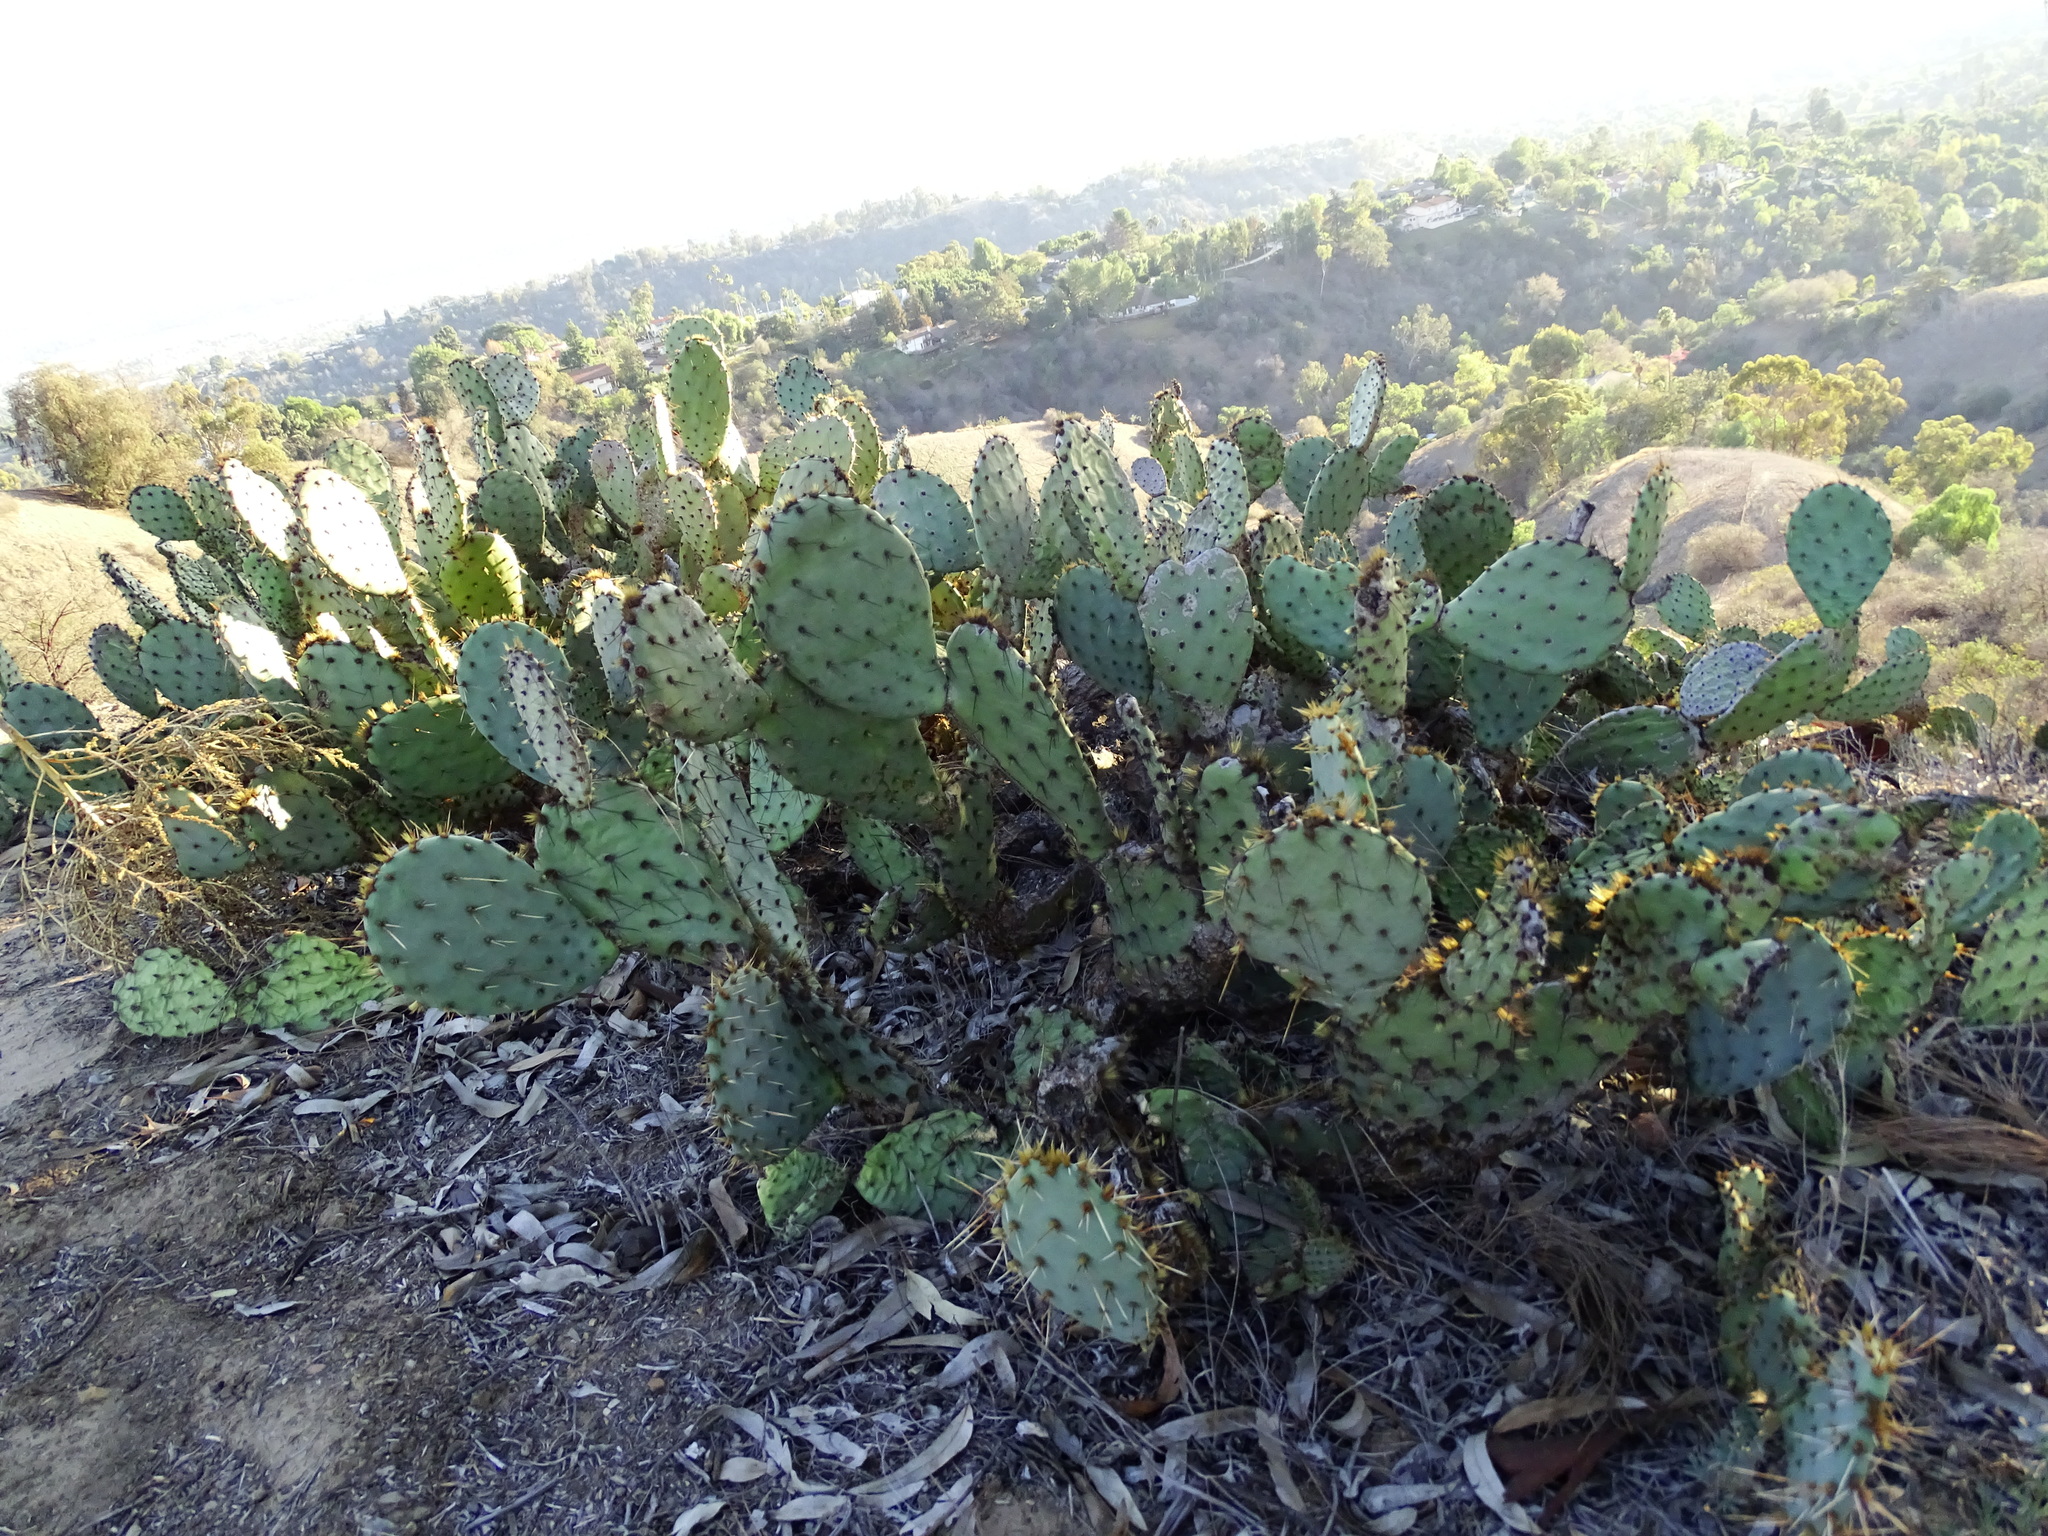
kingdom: Plantae
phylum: Tracheophyta
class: Magnoliopsida
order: Caryophyllales
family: Cactaceae
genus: Opuntia
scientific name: Opuntia littoralis
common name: Coastal prickly-pear
